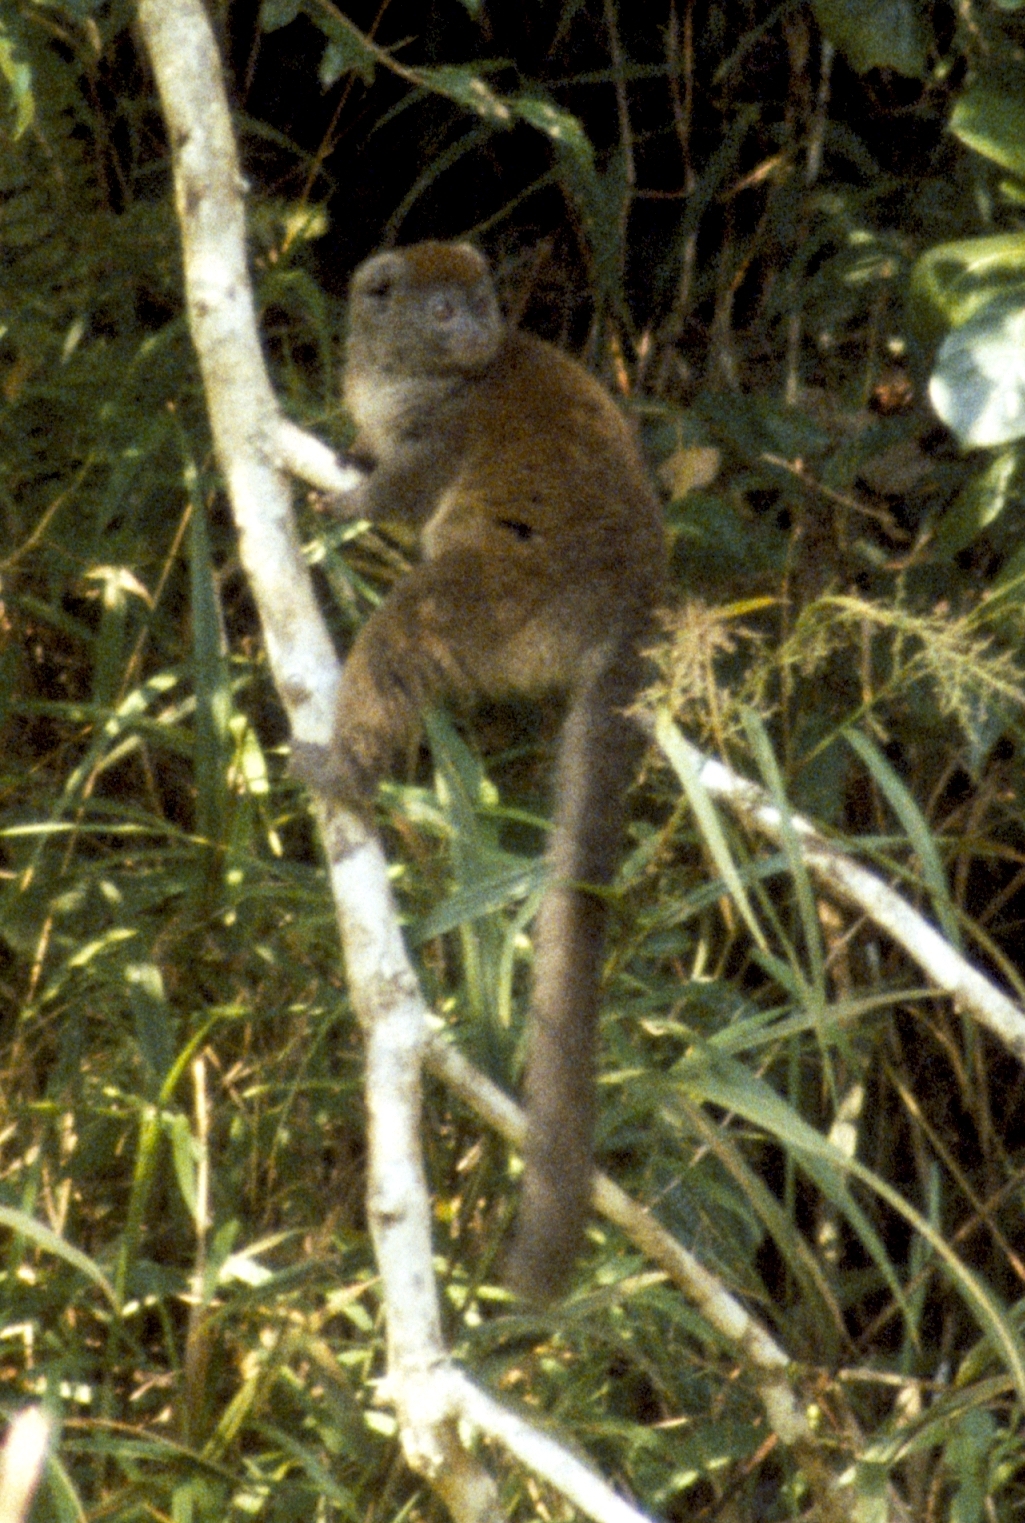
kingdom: Animalia
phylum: Chordata
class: Mammalia
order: Primates
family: Lemuridae
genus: Hapalemur
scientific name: Hapalemur griseus
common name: Gray bamboo lemur
